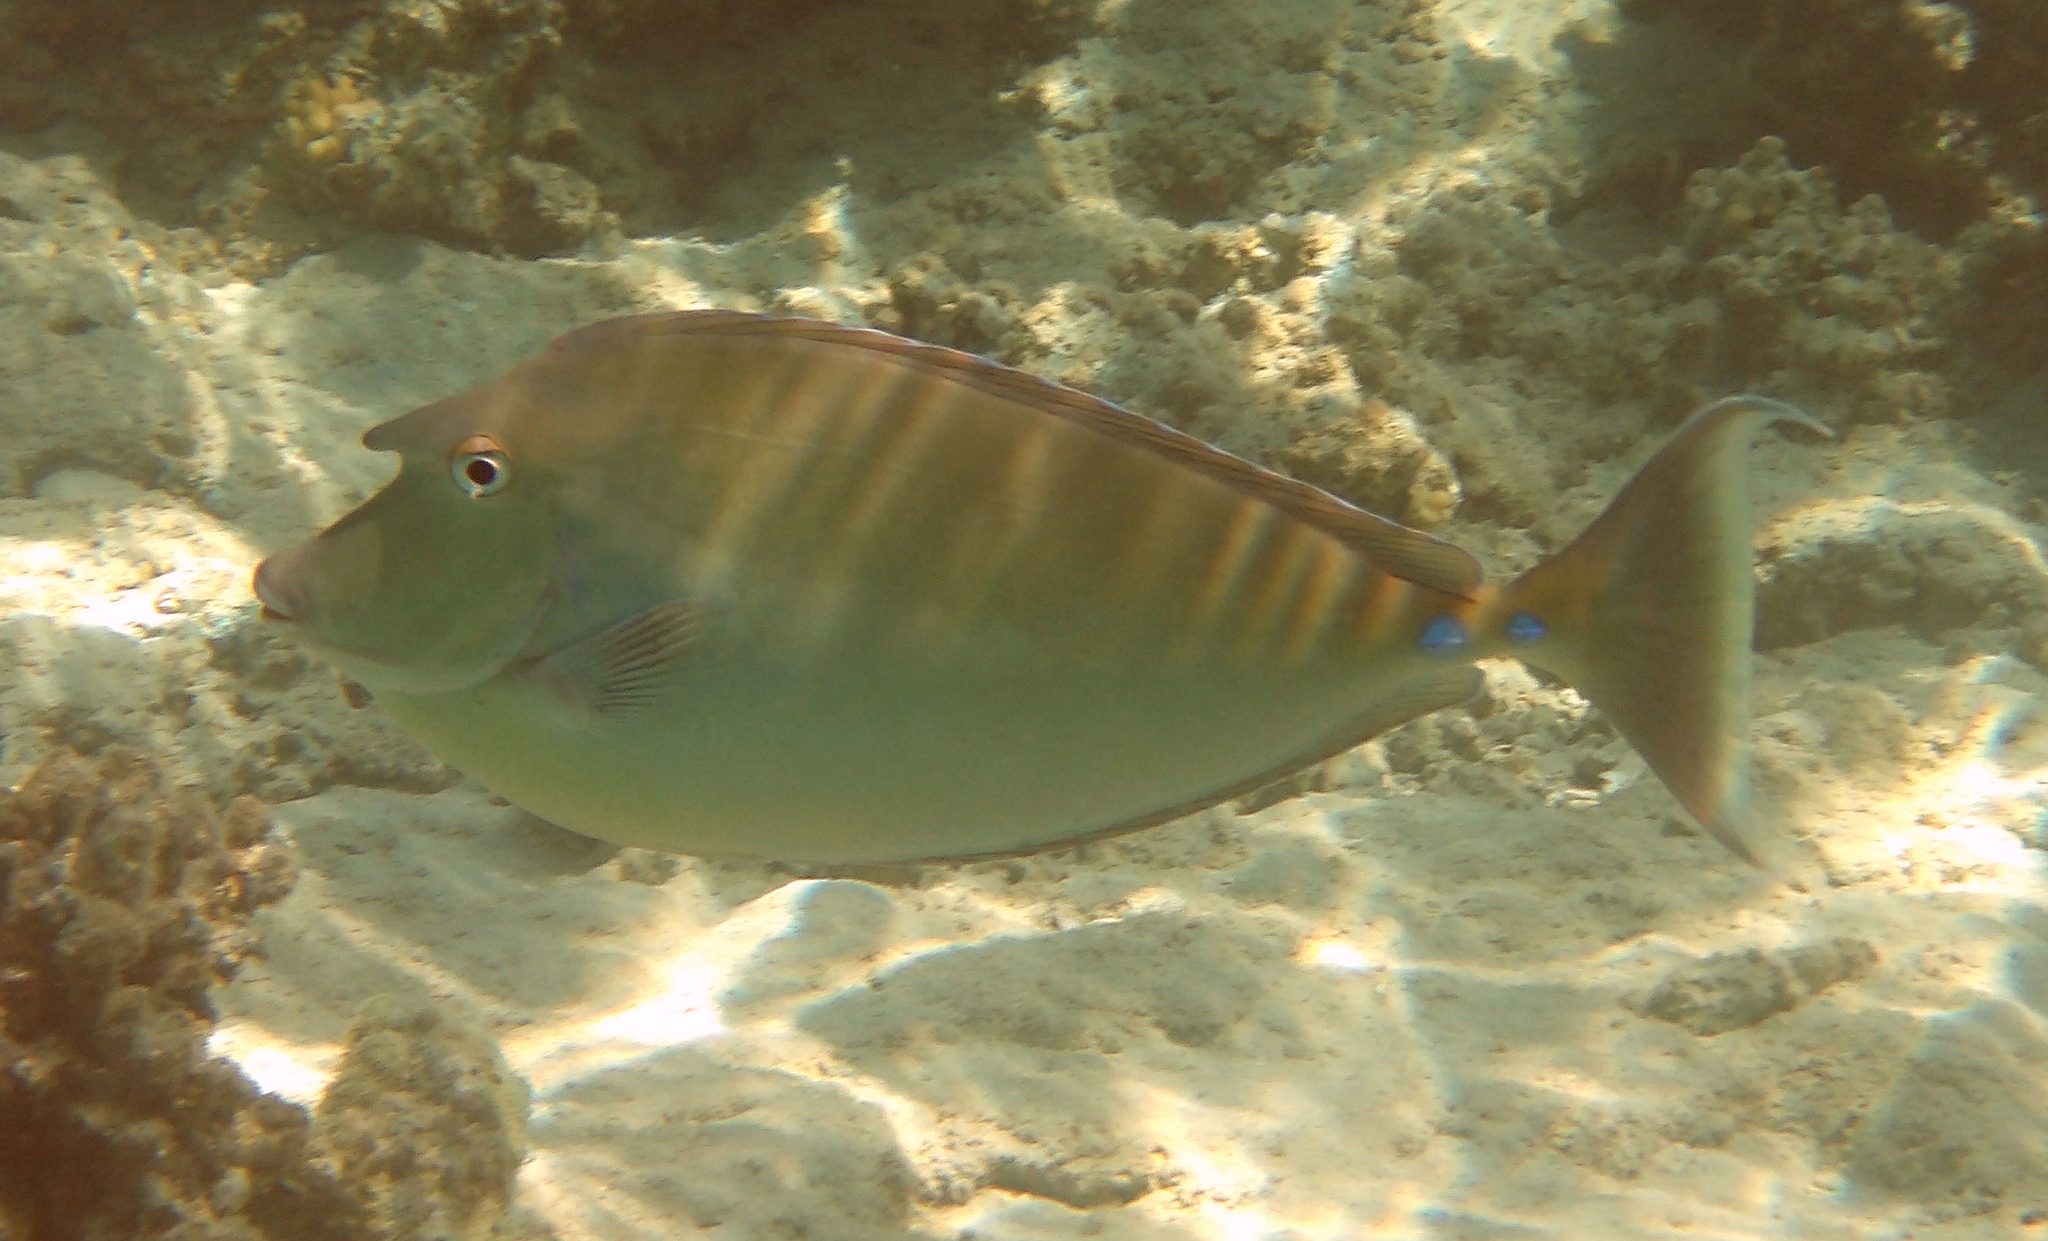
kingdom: Animalia
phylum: Chordata
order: Perciformes
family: Acanthuridae
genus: Naso
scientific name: Naso unicornis
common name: Bluespine unicornfish
